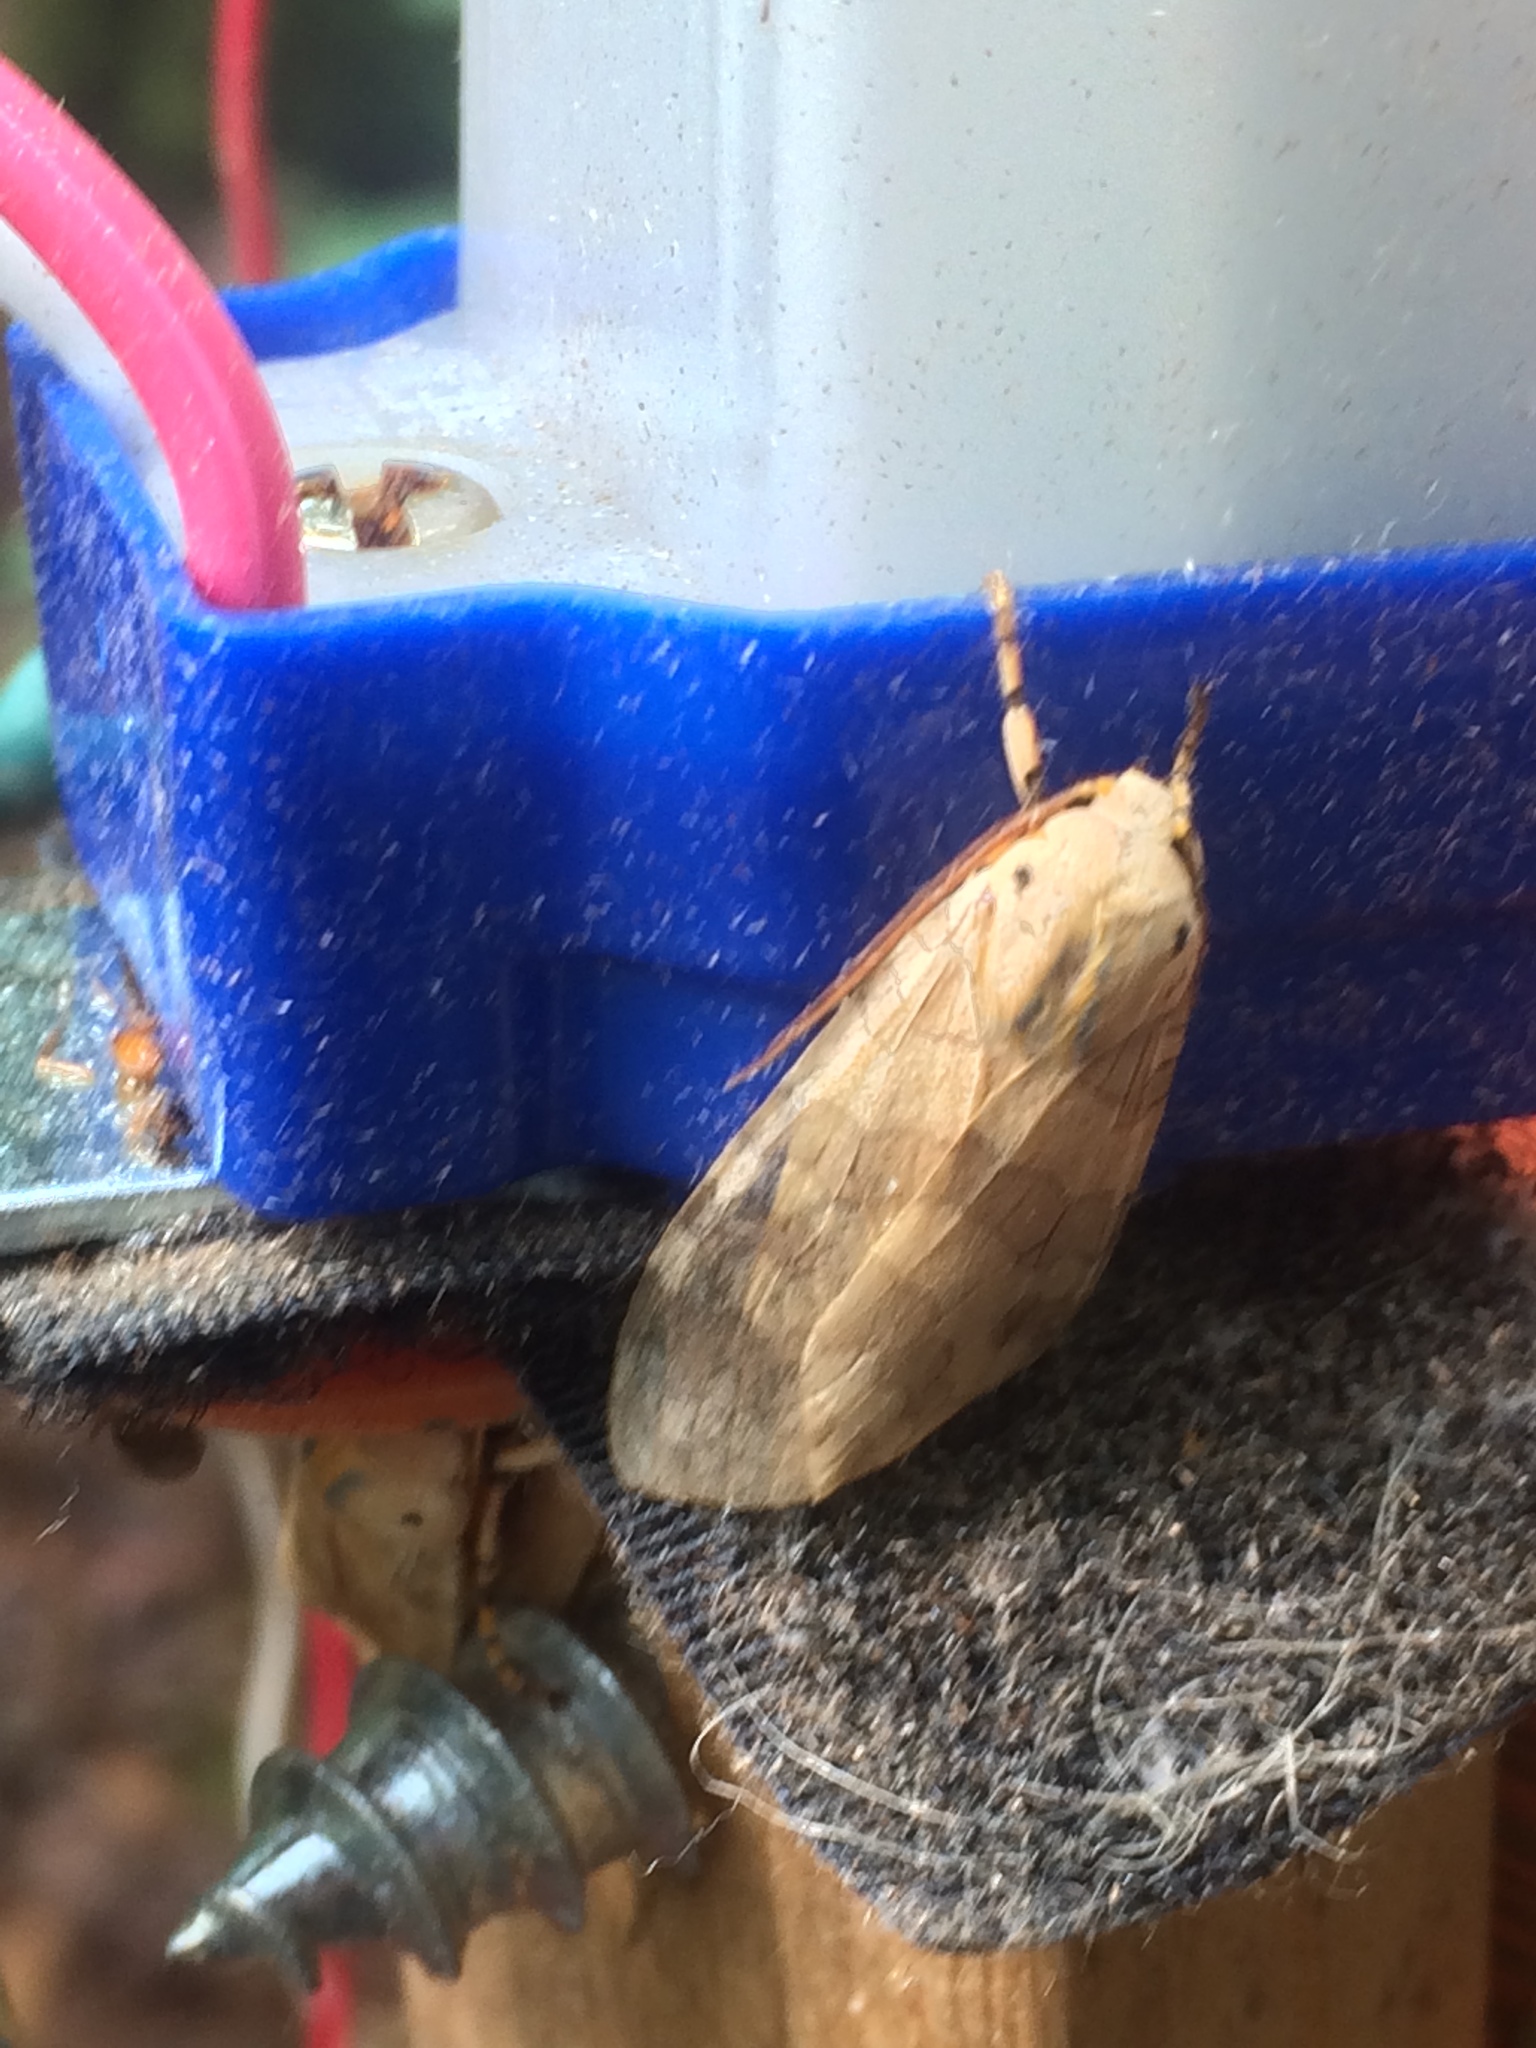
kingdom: Animalia
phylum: Arthropoda
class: Insecta
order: Lepidoptera
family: Erebidae
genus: Halysidota
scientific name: Halysidota
